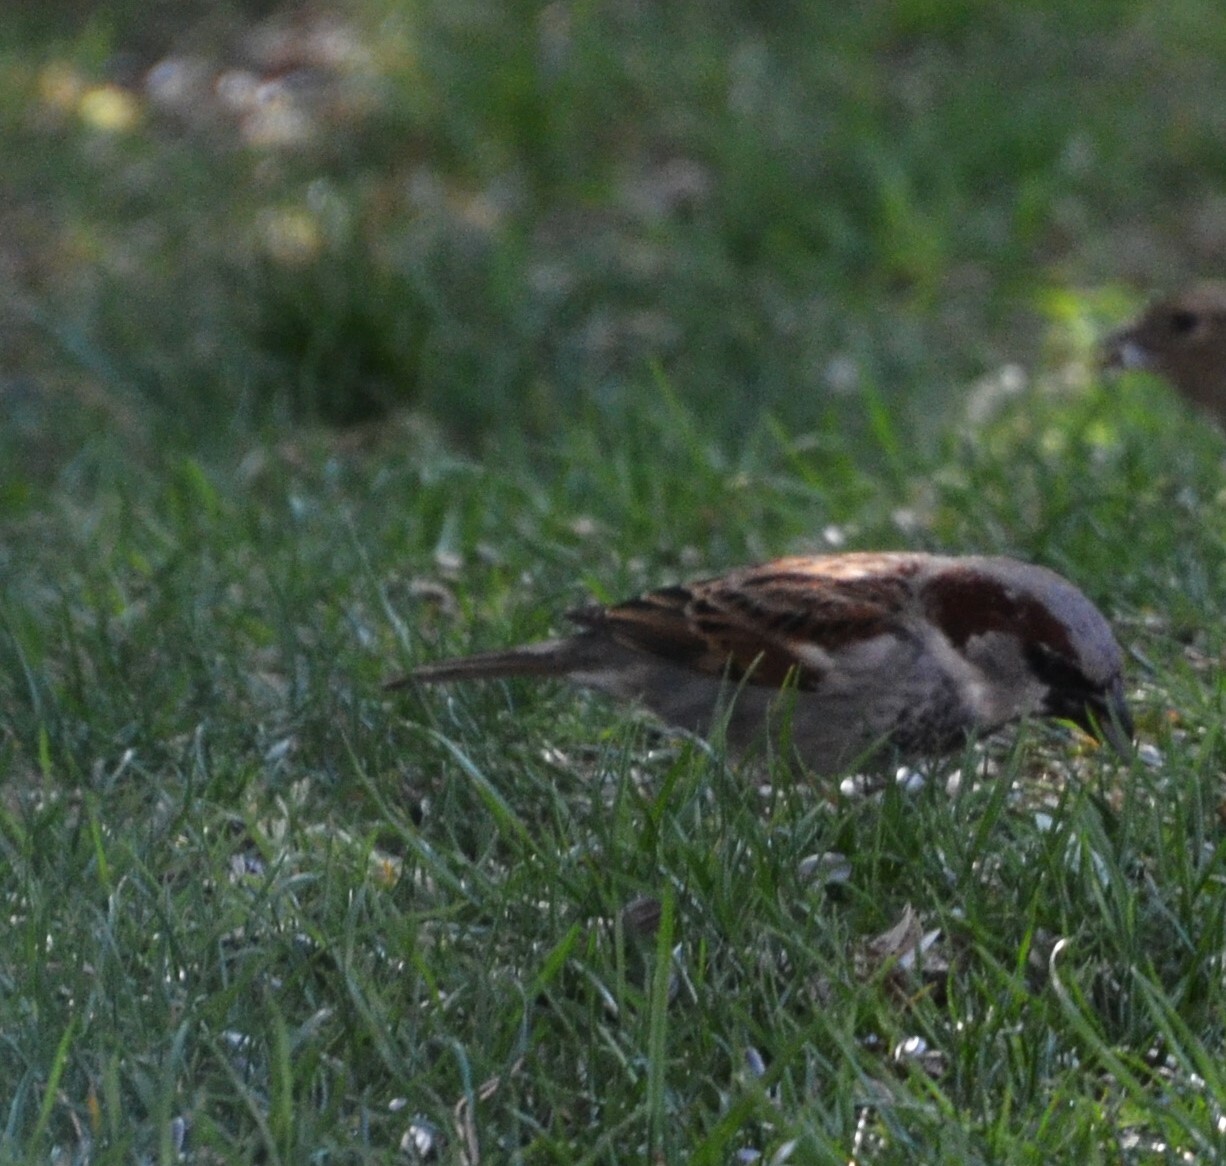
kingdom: Animalia
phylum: Chordata
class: Aves
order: Passeriformes
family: Passeridae
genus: Passer
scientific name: Passer domesticus
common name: House sparrow
